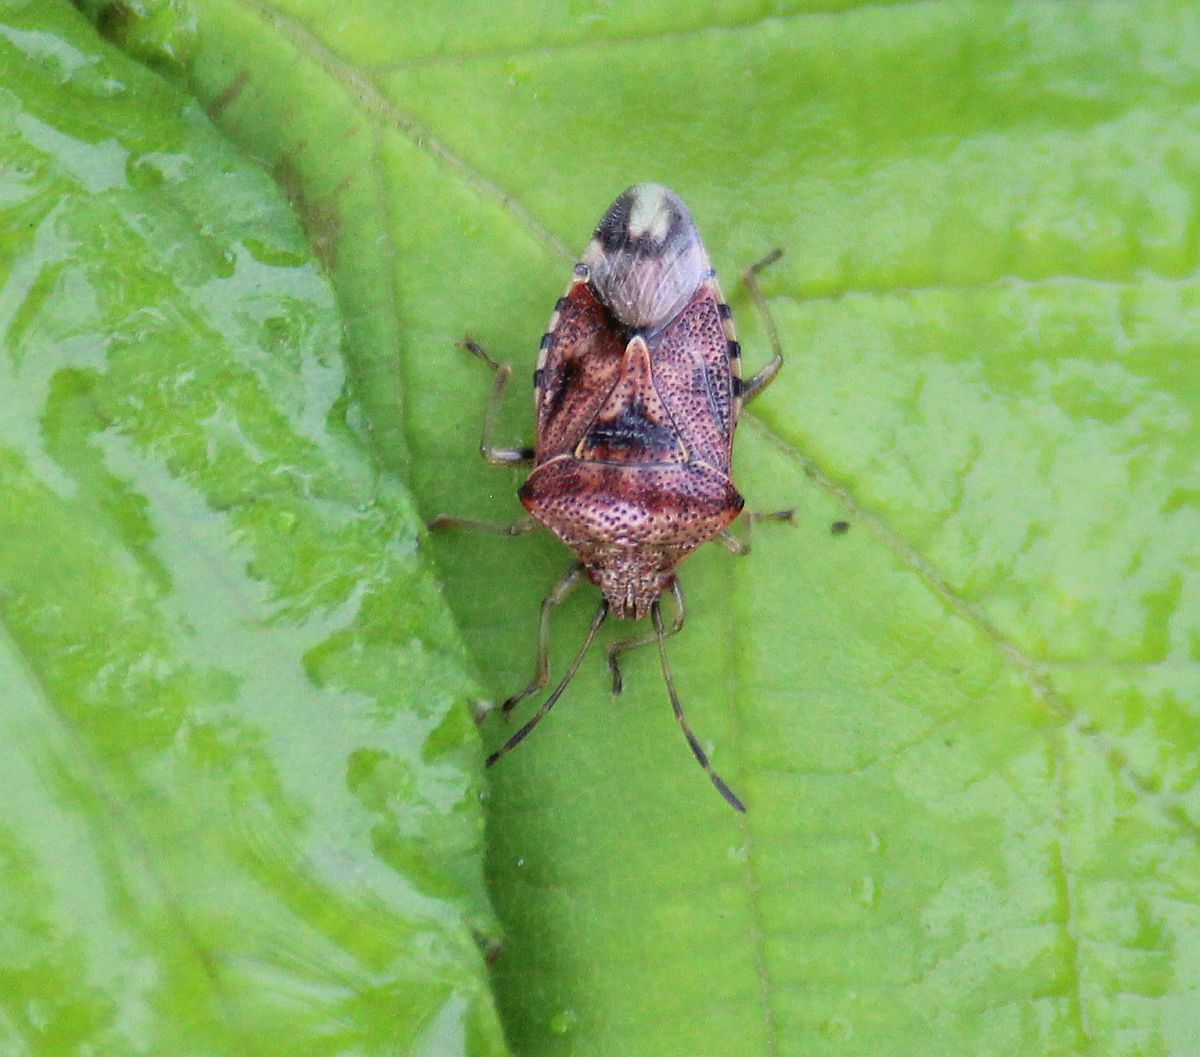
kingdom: Animalia
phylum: Arthropoda
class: Insecta
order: Hemiptera
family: Acanthosomatidae
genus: Elasmucha
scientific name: Elasmucha grisea
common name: Parent bug
